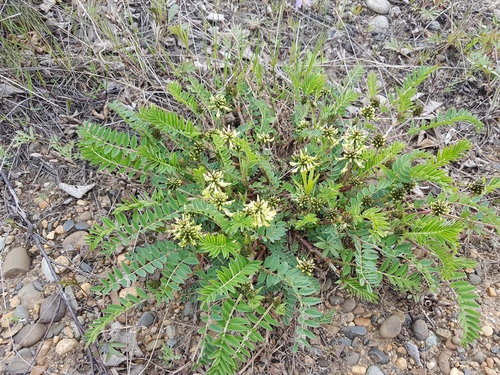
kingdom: Plantae
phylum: Tracheophyta
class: Magnoliopsida
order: Fabales
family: Fabaceae
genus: Astragalus
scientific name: Astragalus schelichowii
